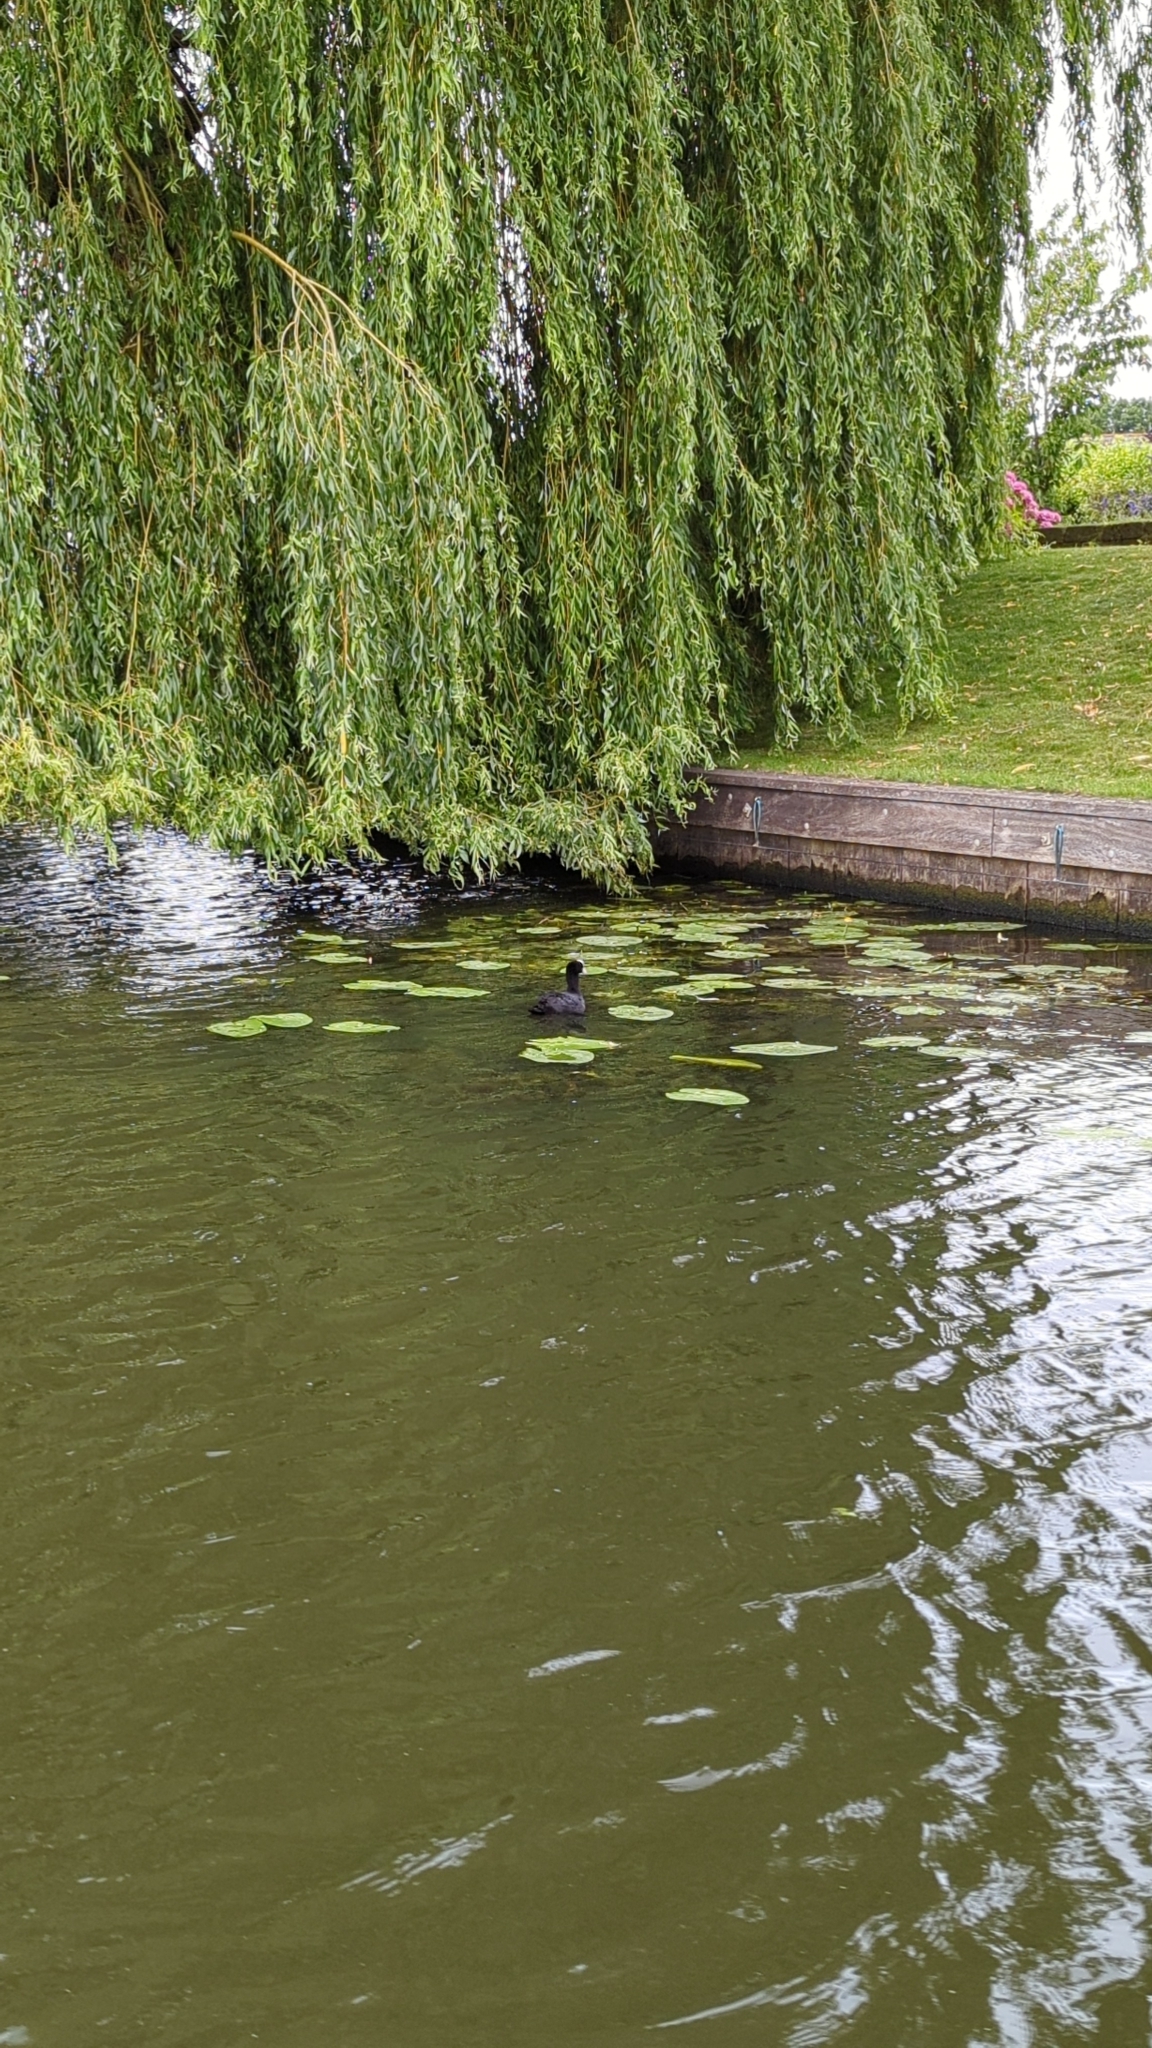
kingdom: Animalia
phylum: Chordata
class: Aves
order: Gruiformes
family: Rallidae
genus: Fulica
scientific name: Fulica atra
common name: Eurasian coot
